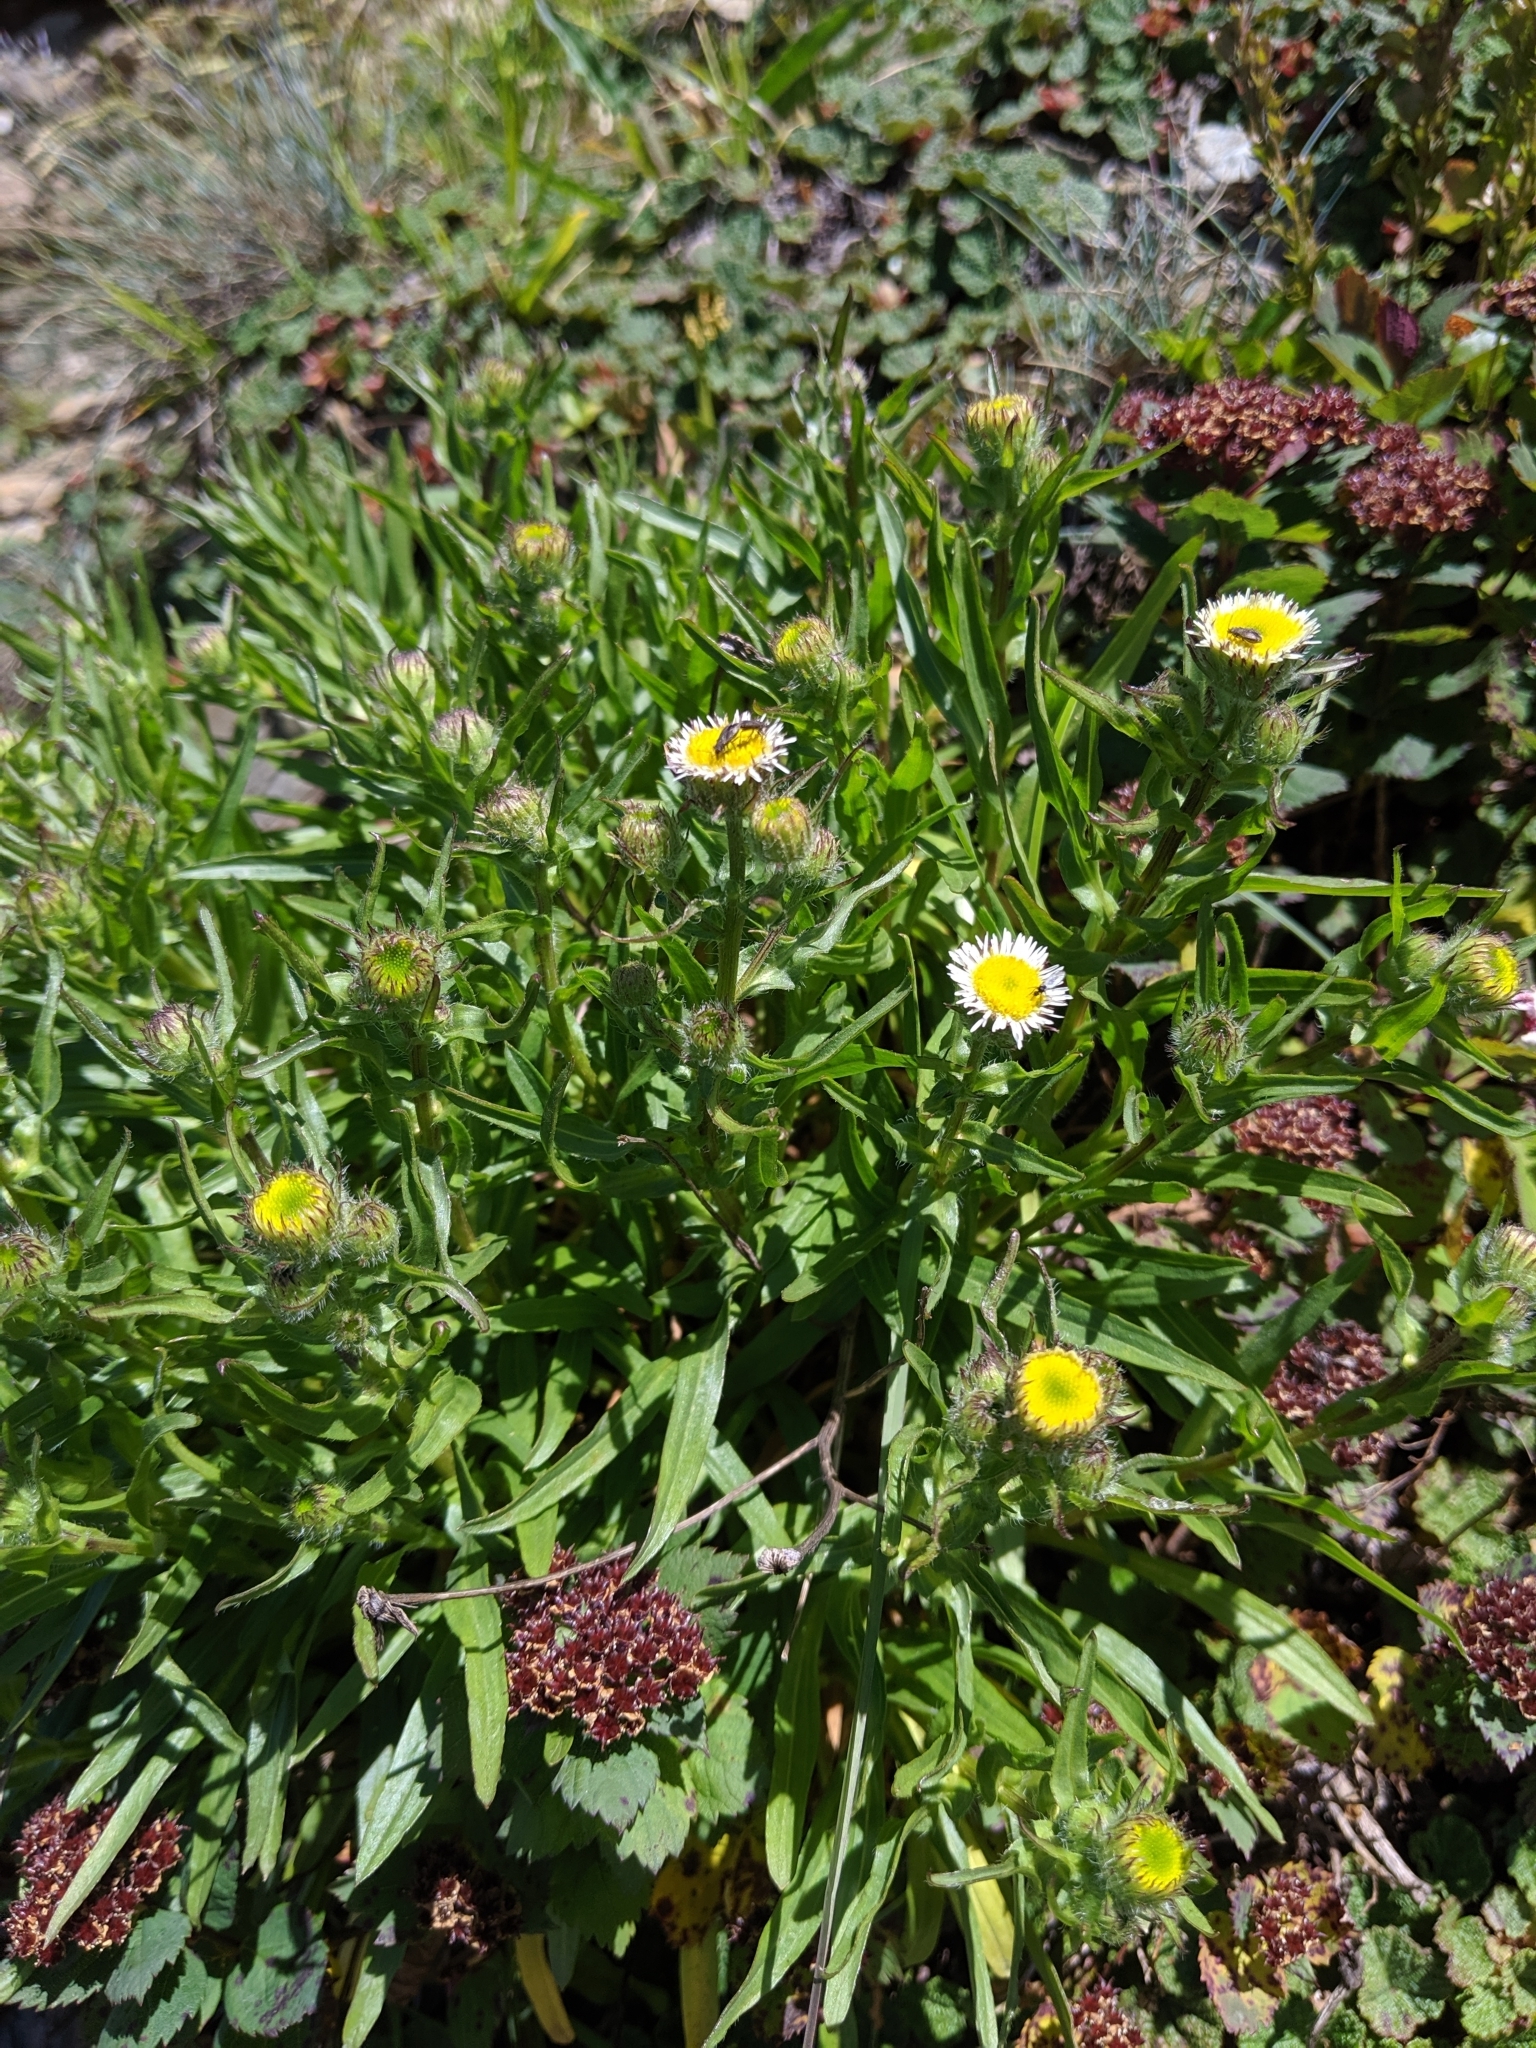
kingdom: Plantae
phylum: Tracheophyta
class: Magnoliopsida
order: Asterales
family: Asteraceae
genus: Erigeron
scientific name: Erigeron morrisonensis
